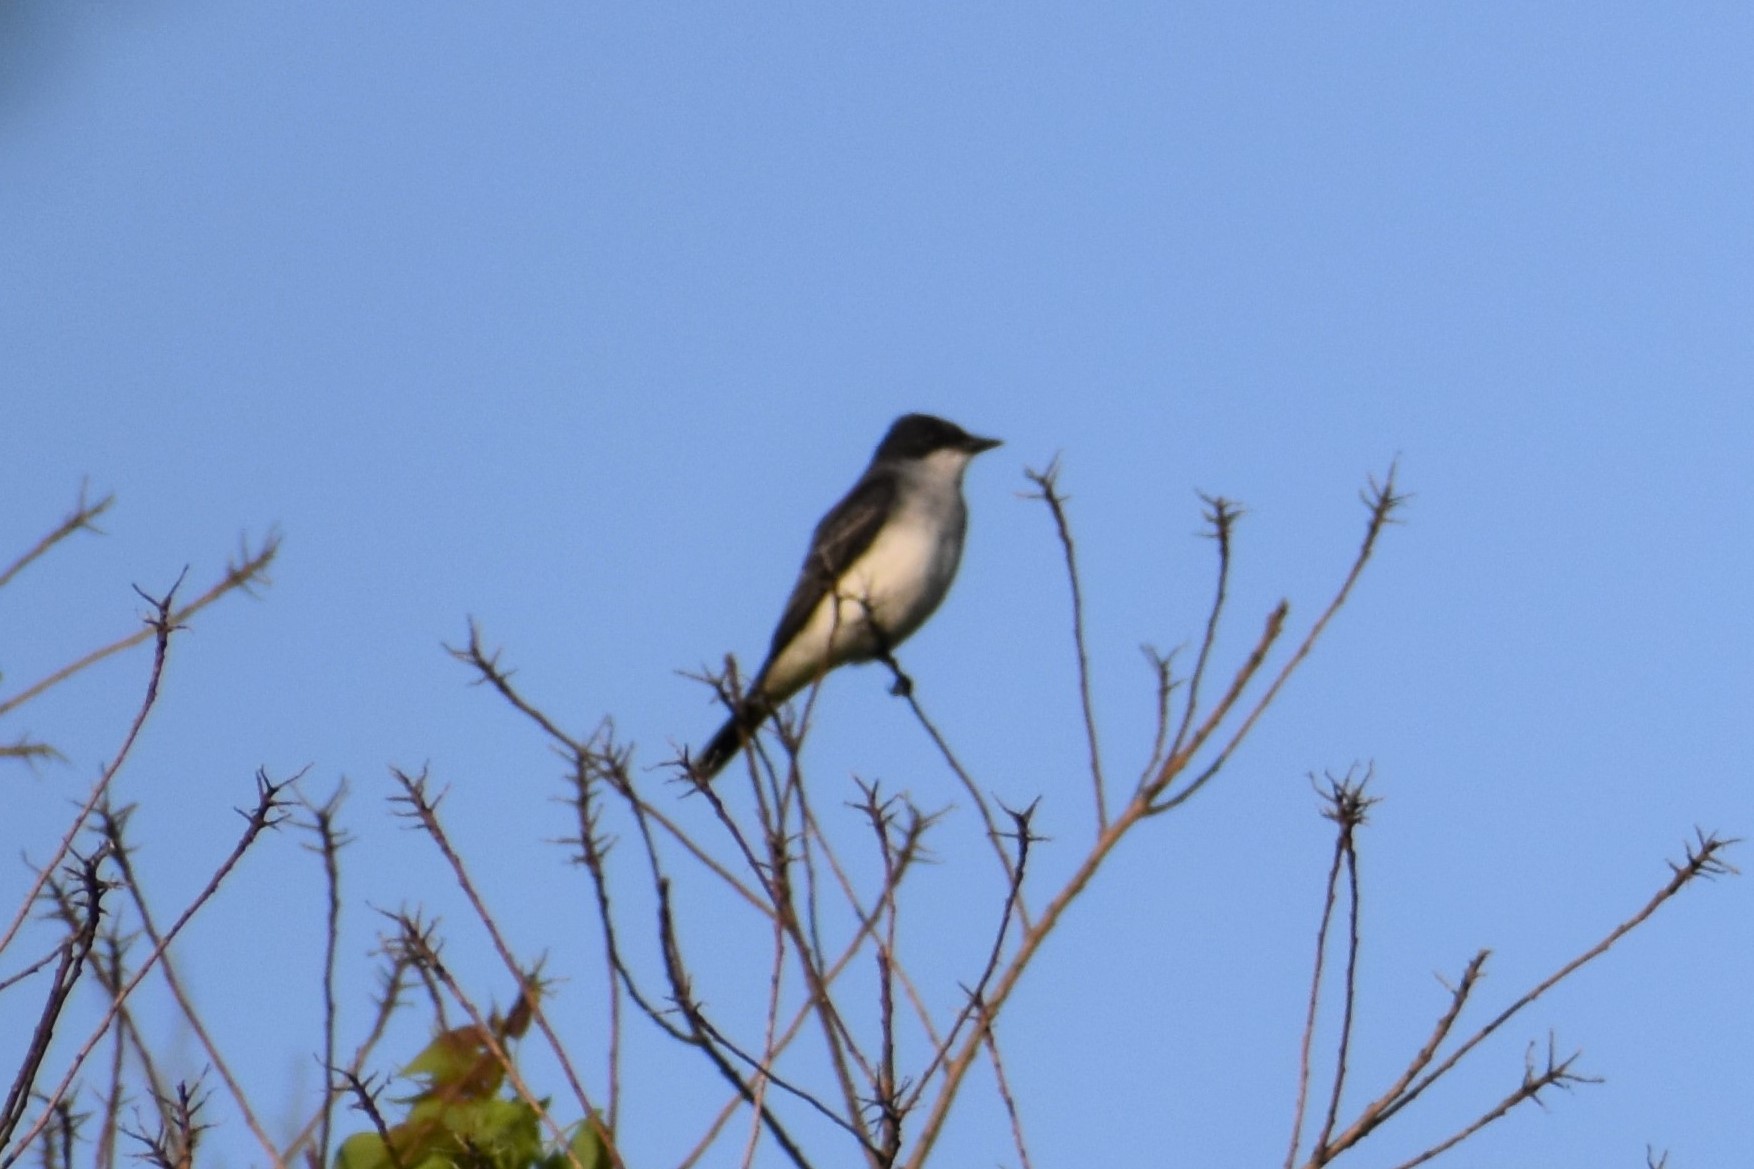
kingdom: Animalia
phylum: Chordata
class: Aves
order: Passeriformes
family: Tyrannidae
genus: Tyrannus
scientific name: Tyrannus tyrannus
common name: Eastern kingbird
